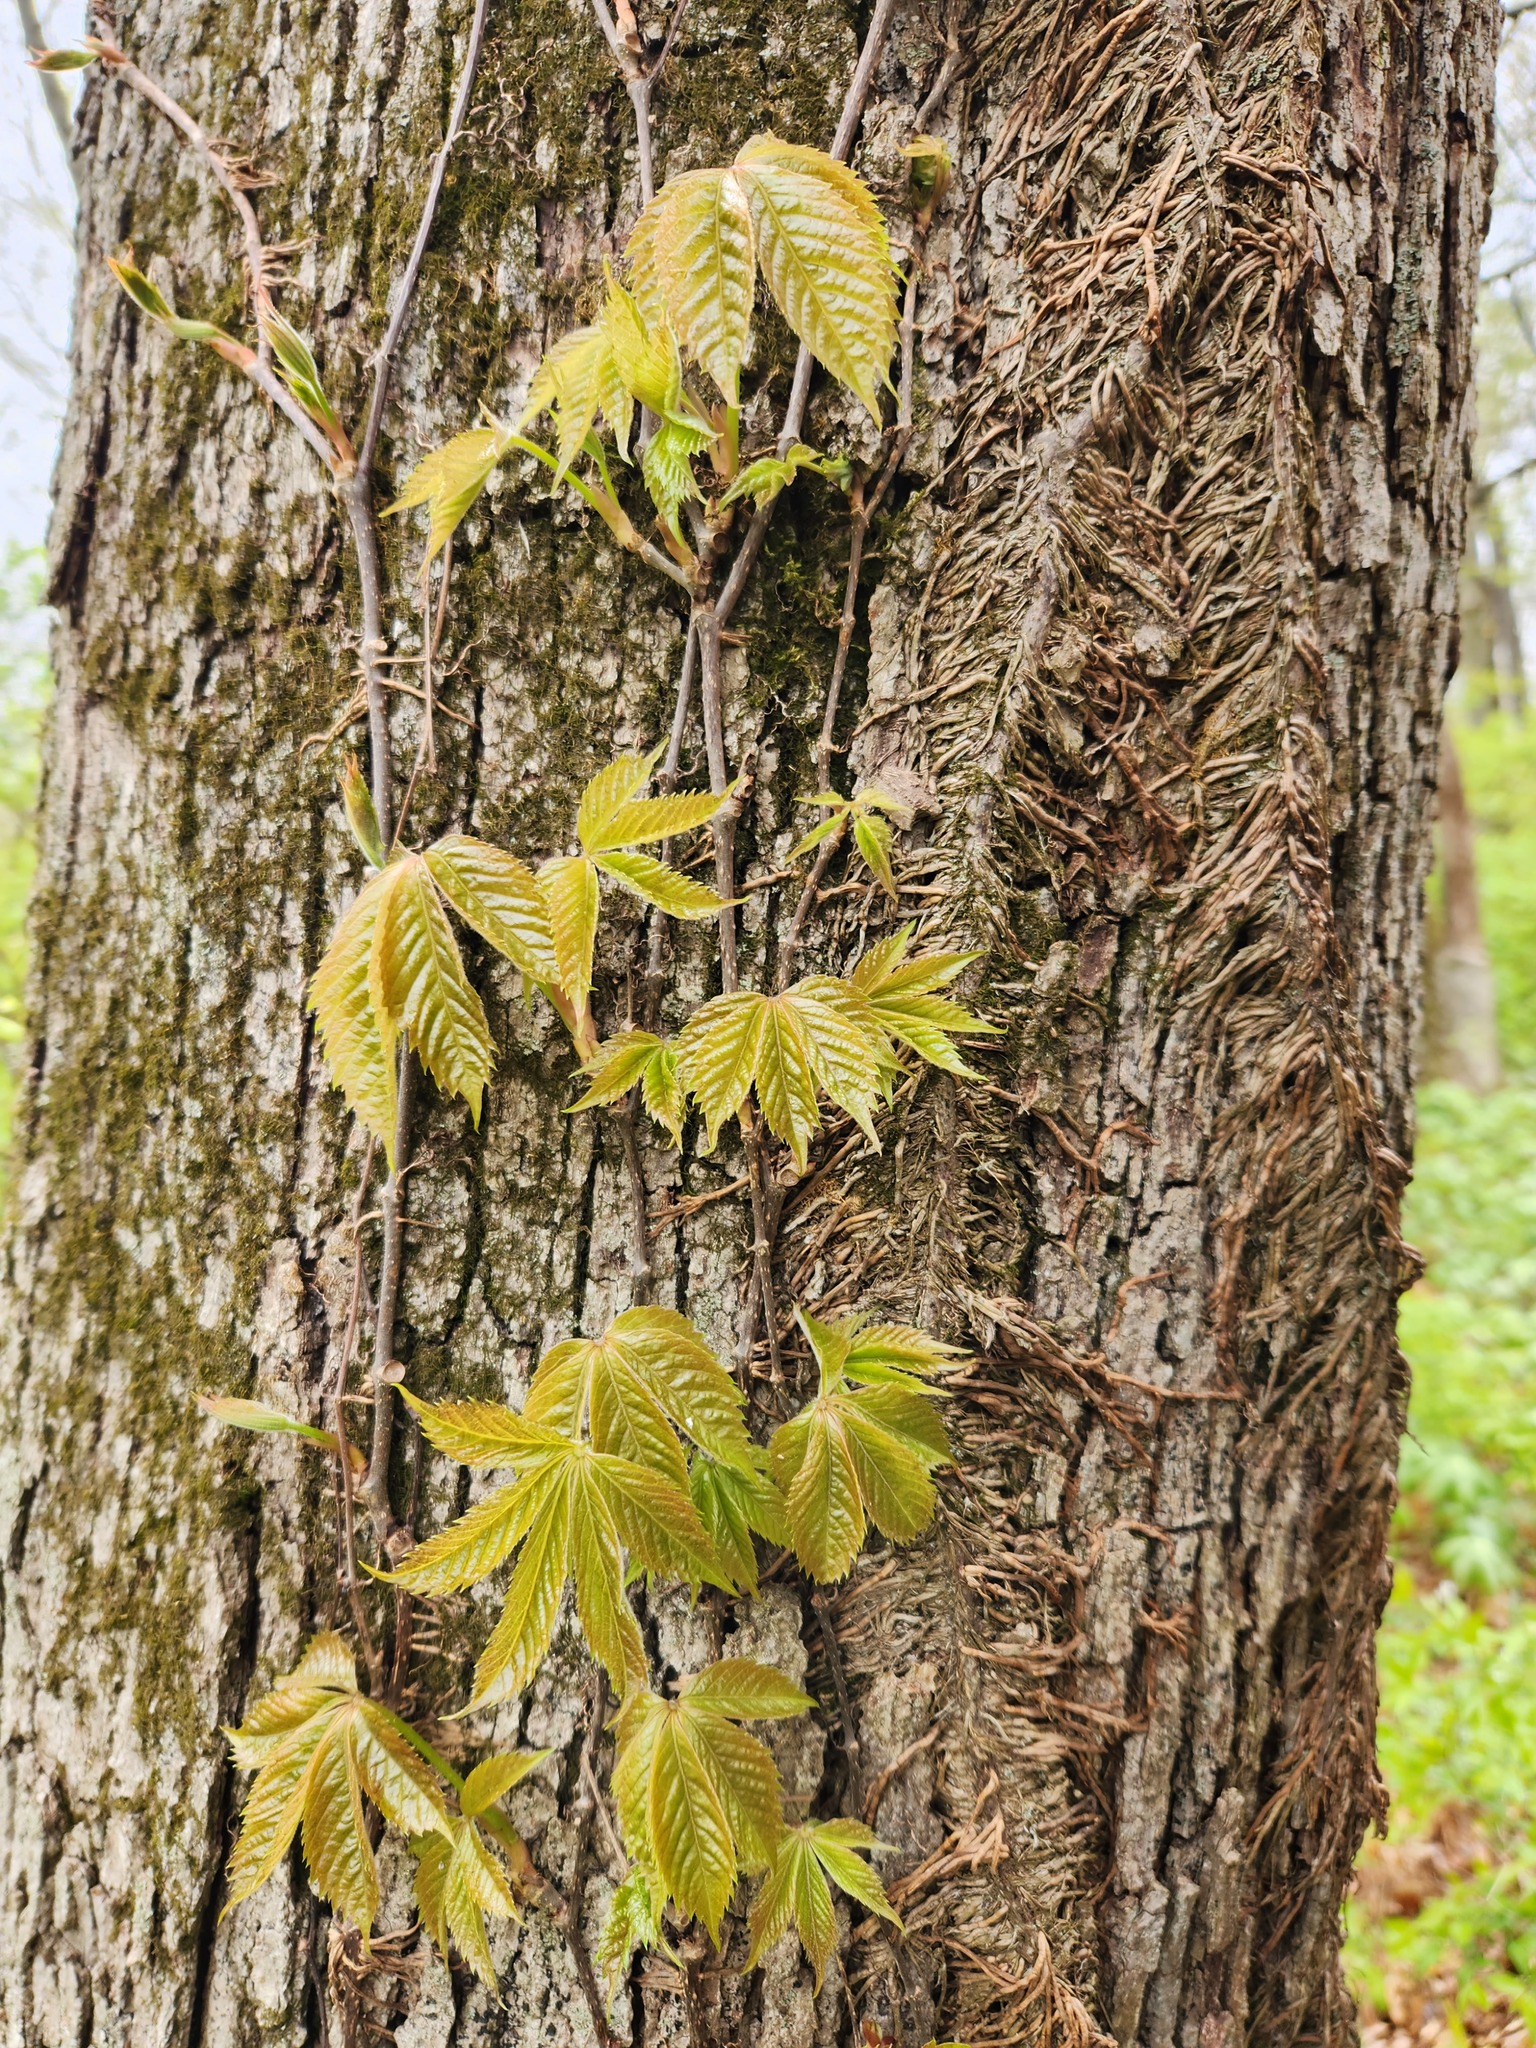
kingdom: Plantae
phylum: Tracheophyta
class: Magnoliopsida
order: Vitales
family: Vitaceae
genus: Parthenocissus
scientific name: Parthenocissus quinquefolia
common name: Virginia-creeper
